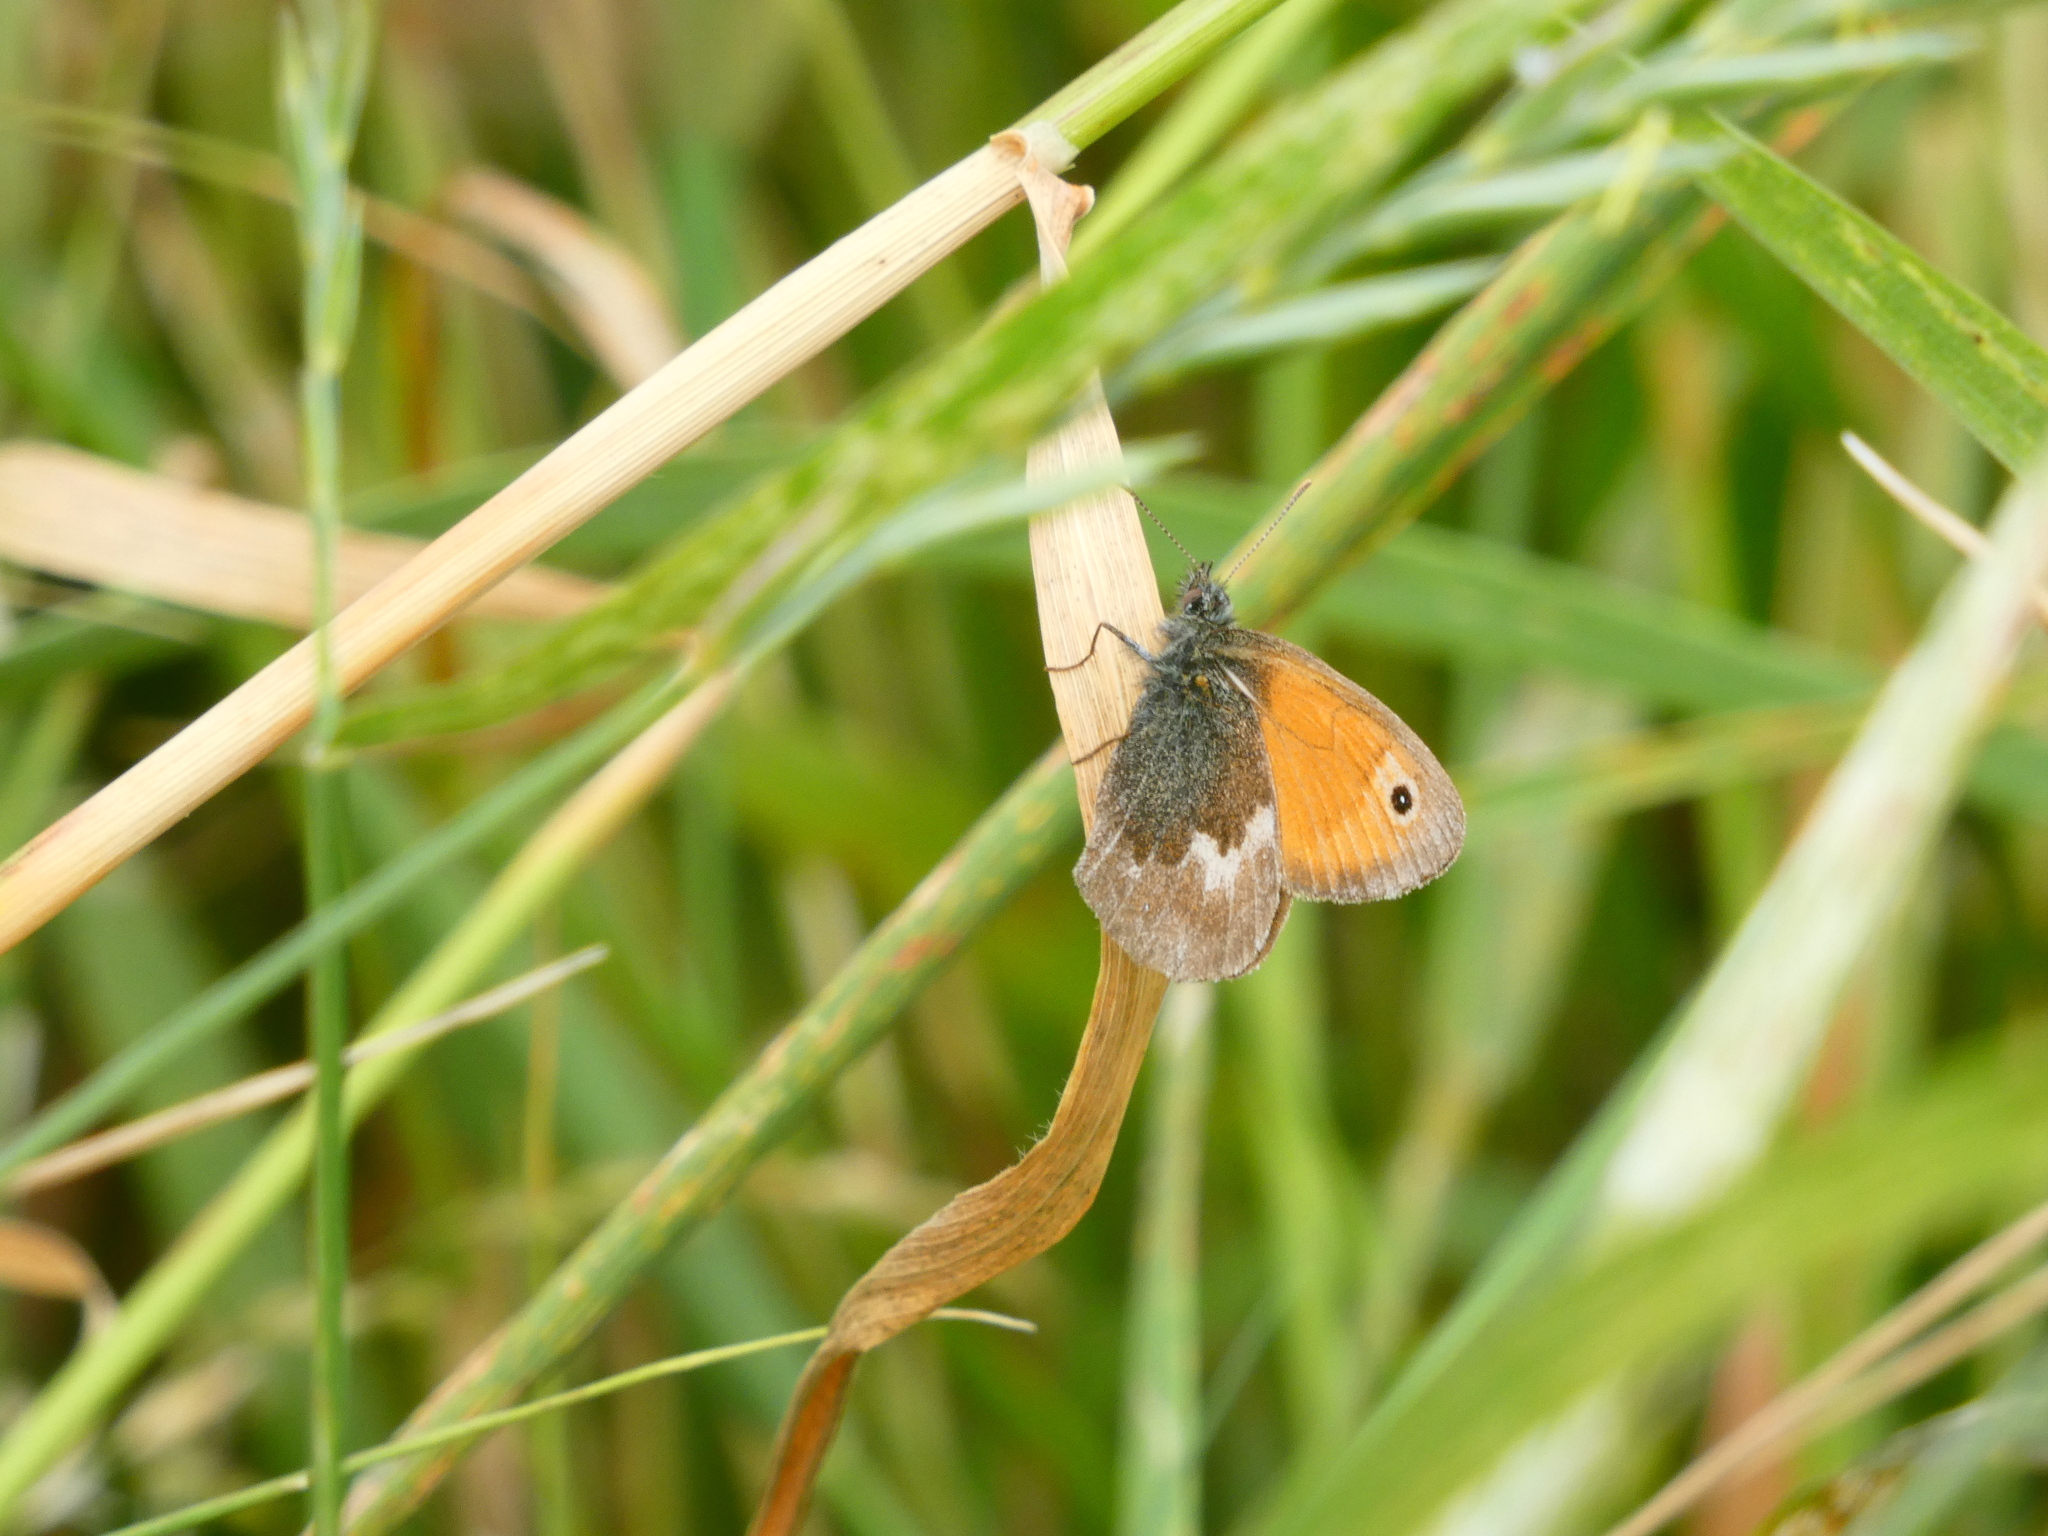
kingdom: Animalia
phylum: Arthropoda
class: Insecta
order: Lepidoptera
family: Nymphalidae
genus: Coenonympha
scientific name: Coenonympha pamphilus
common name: Small heath
